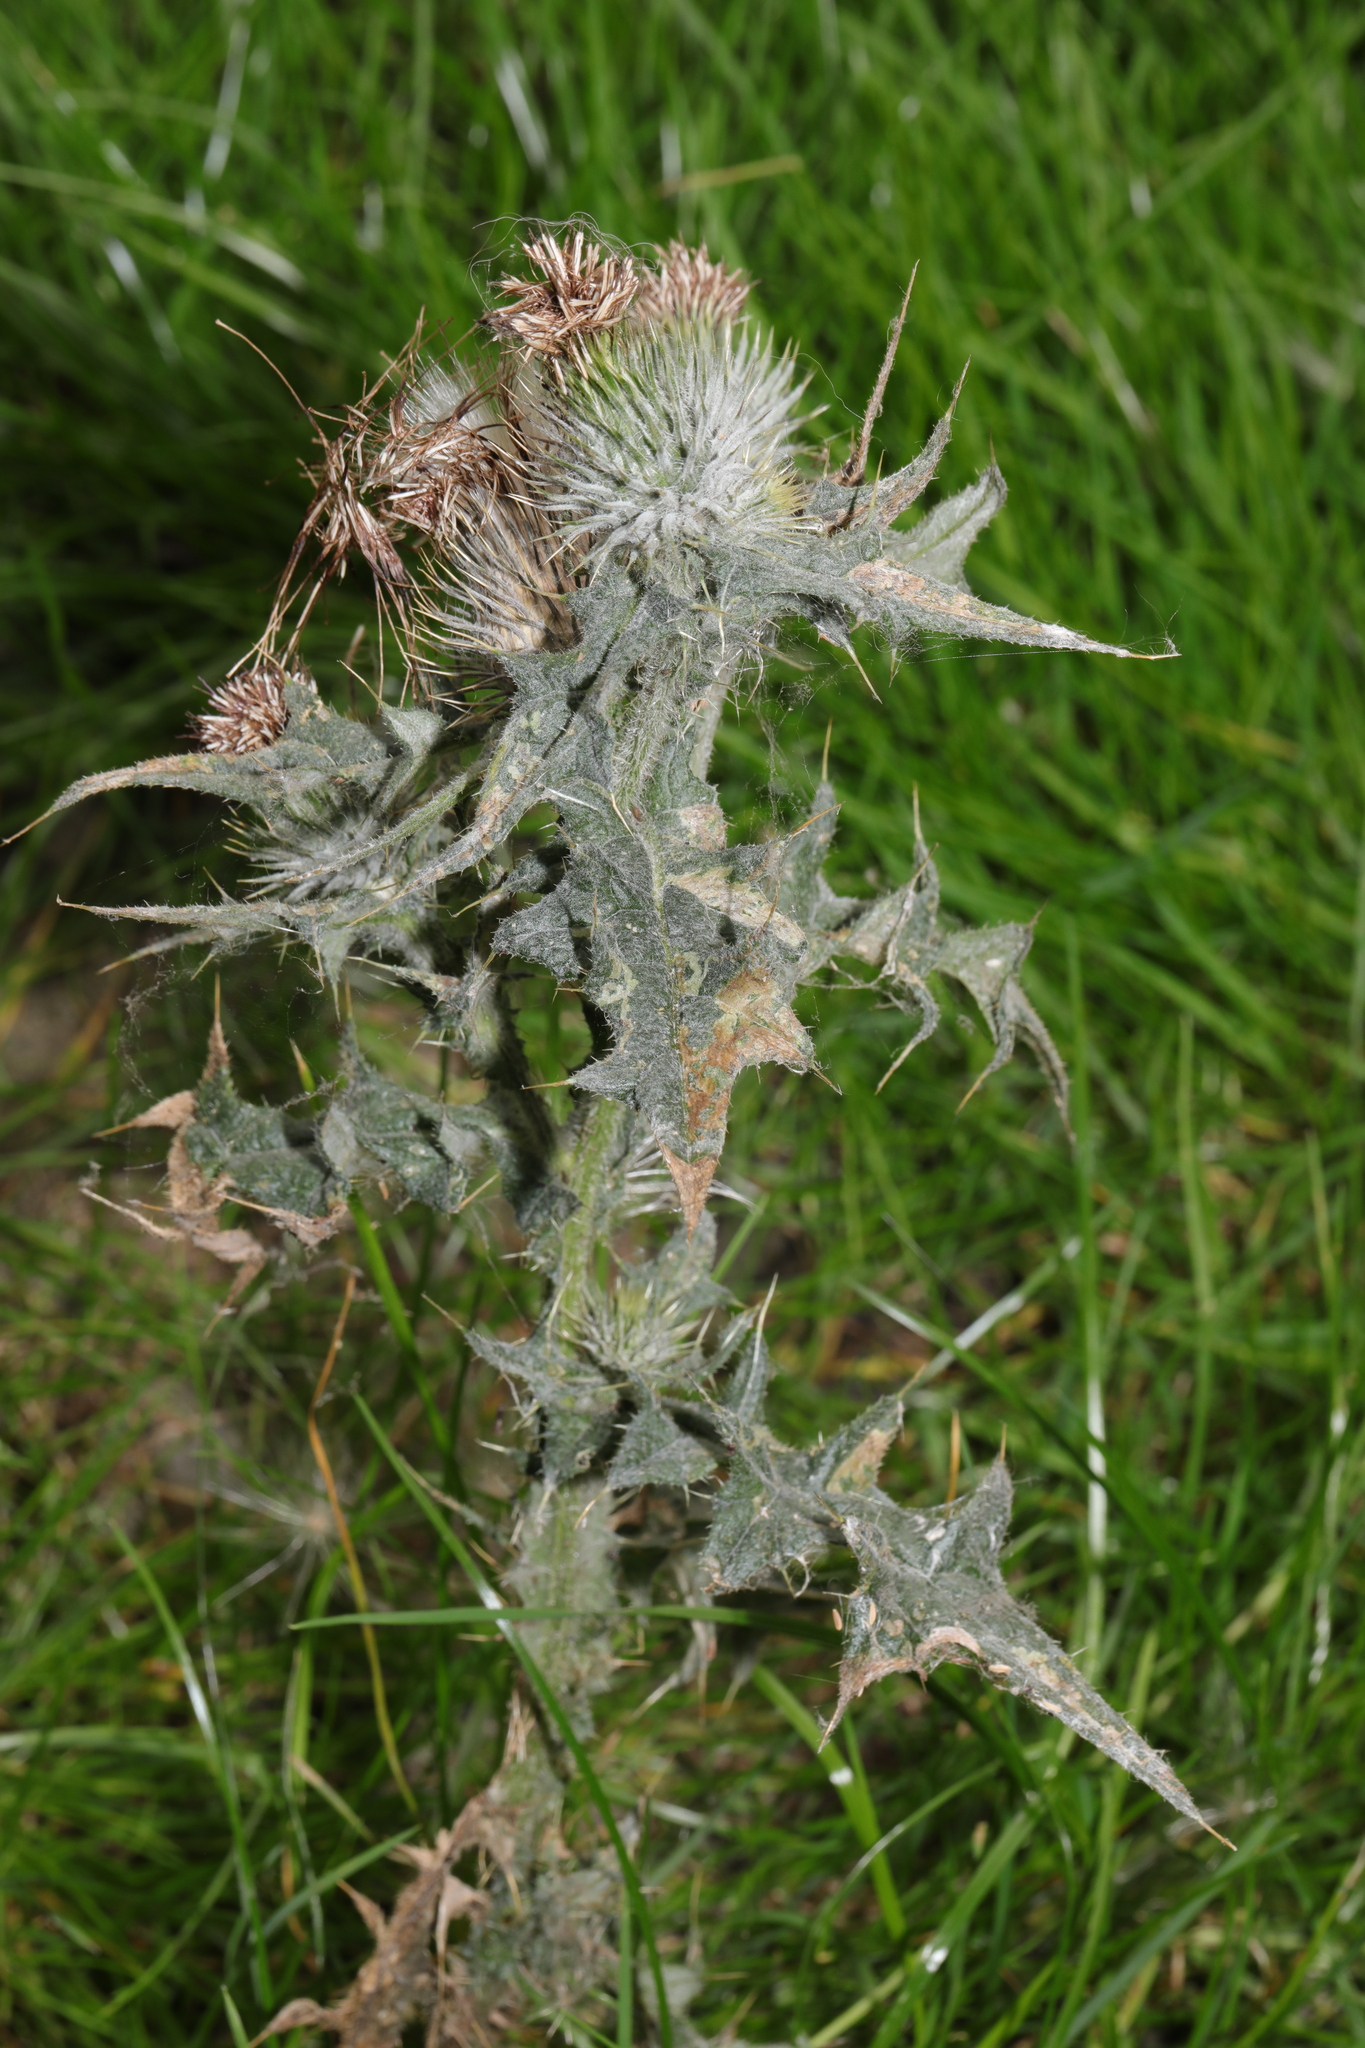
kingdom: Plantae
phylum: Tracheophyta
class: Magnoliopsida
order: Asterales
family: Asteraceae
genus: Cirsium
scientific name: Cirsium vulgare
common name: Bull thistle
